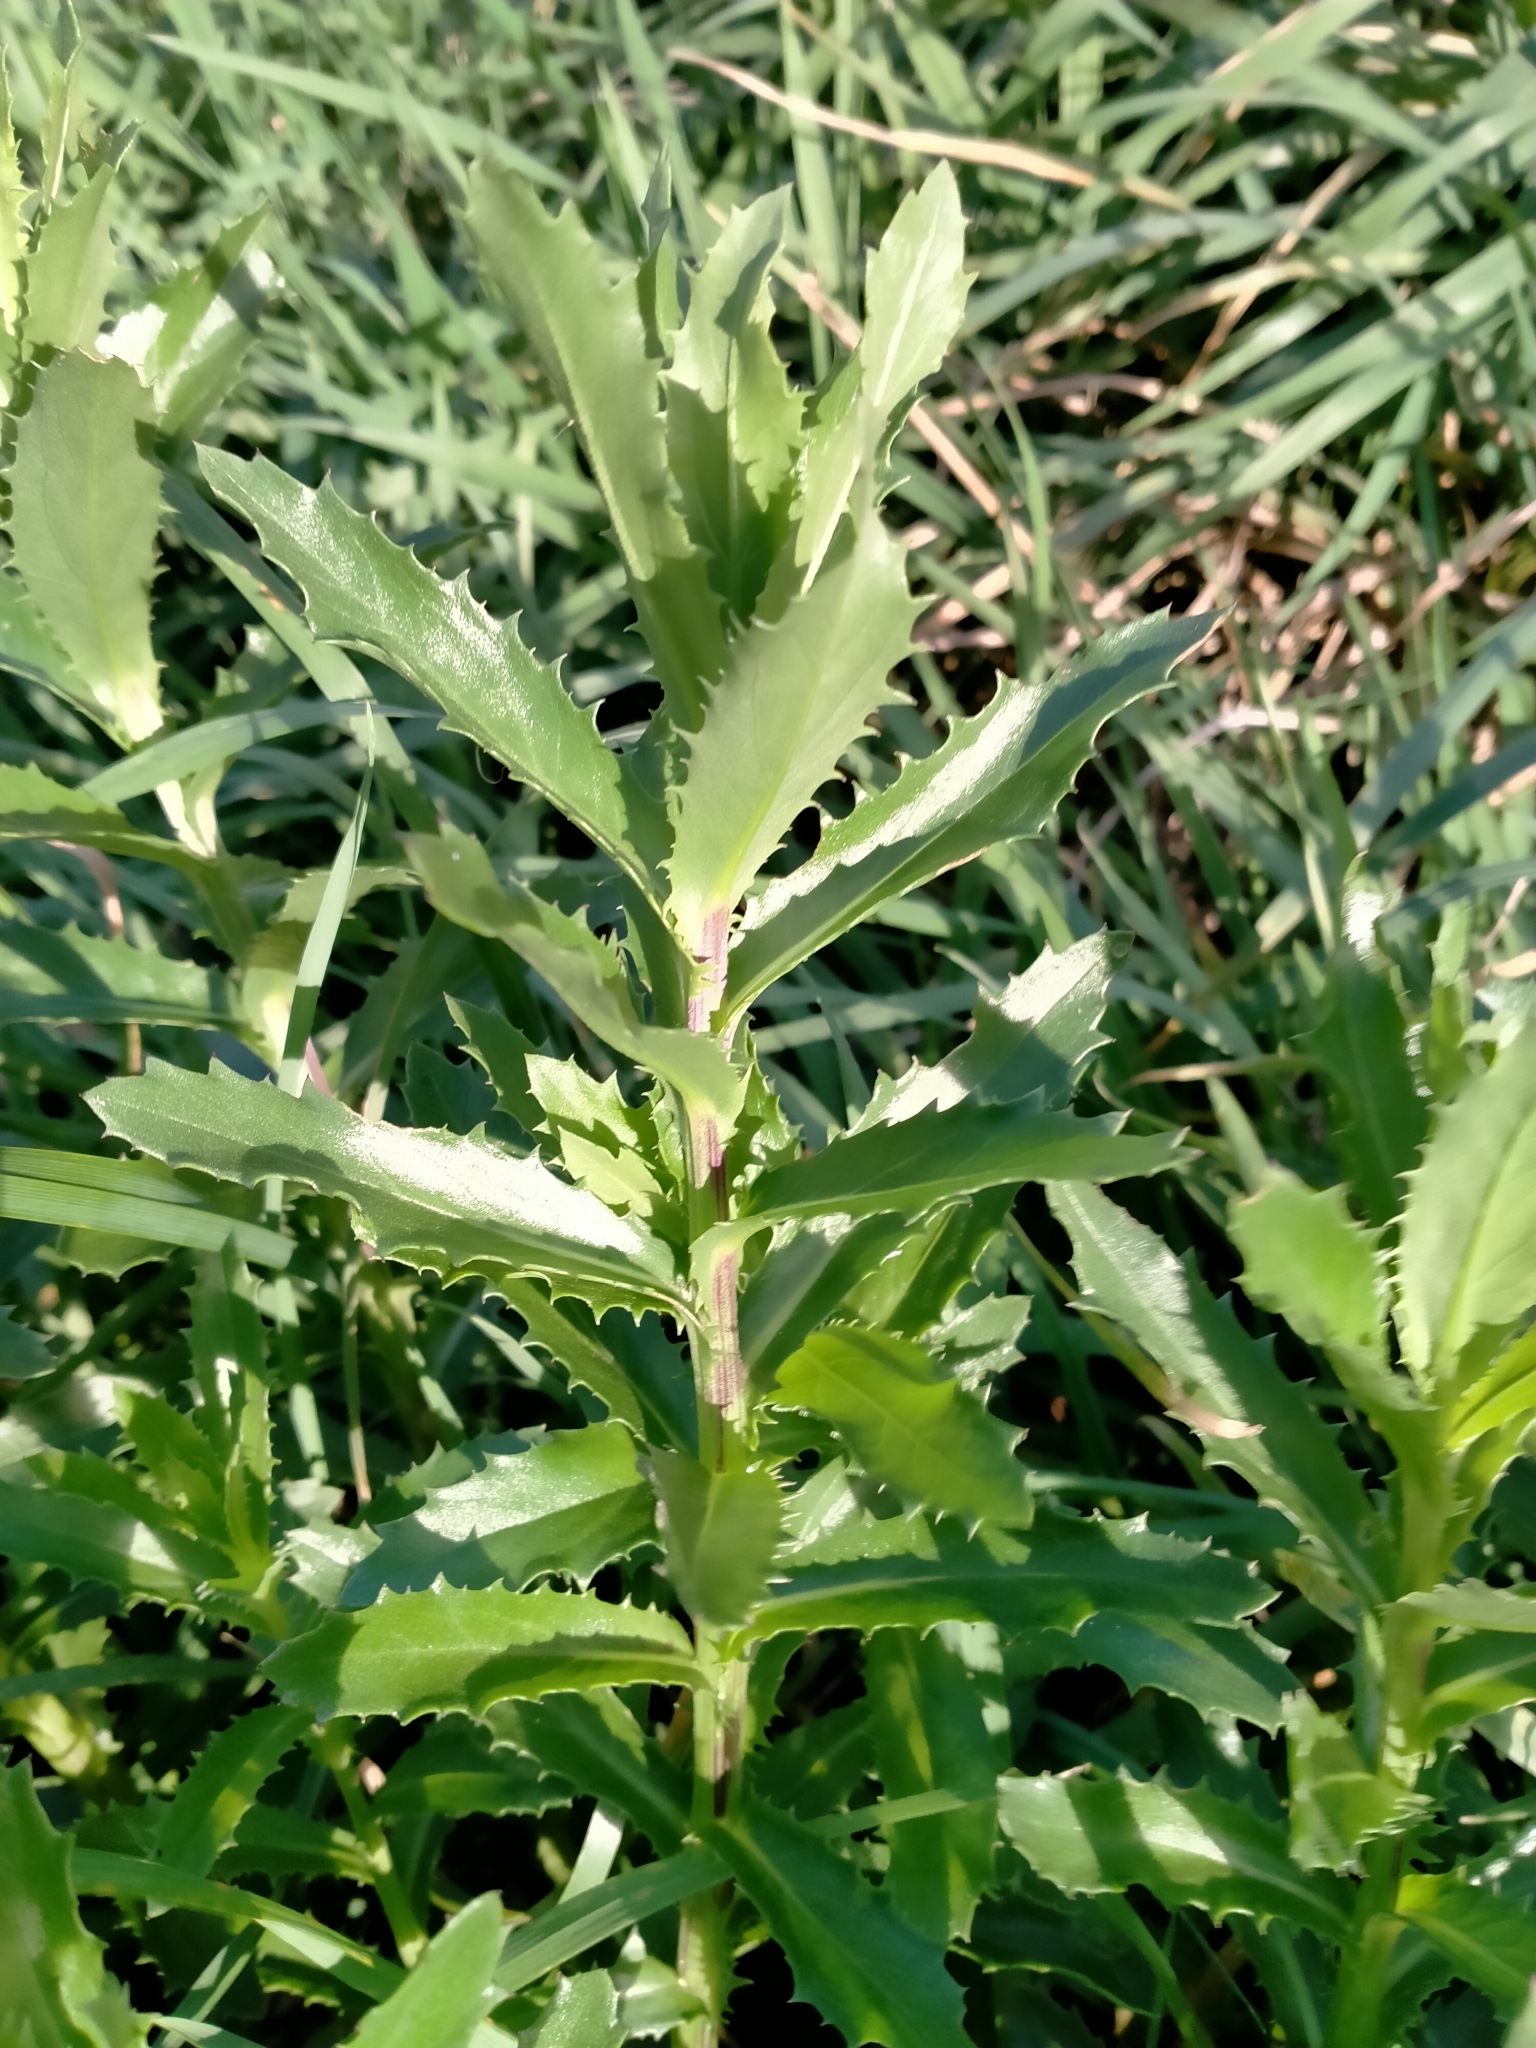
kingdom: Plantae
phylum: Tracheophyta
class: Magnoliopsida
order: Asterales
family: Asteraceae
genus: Senecio
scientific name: Senecio glastifolius
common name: Woad-leaved ragwort
